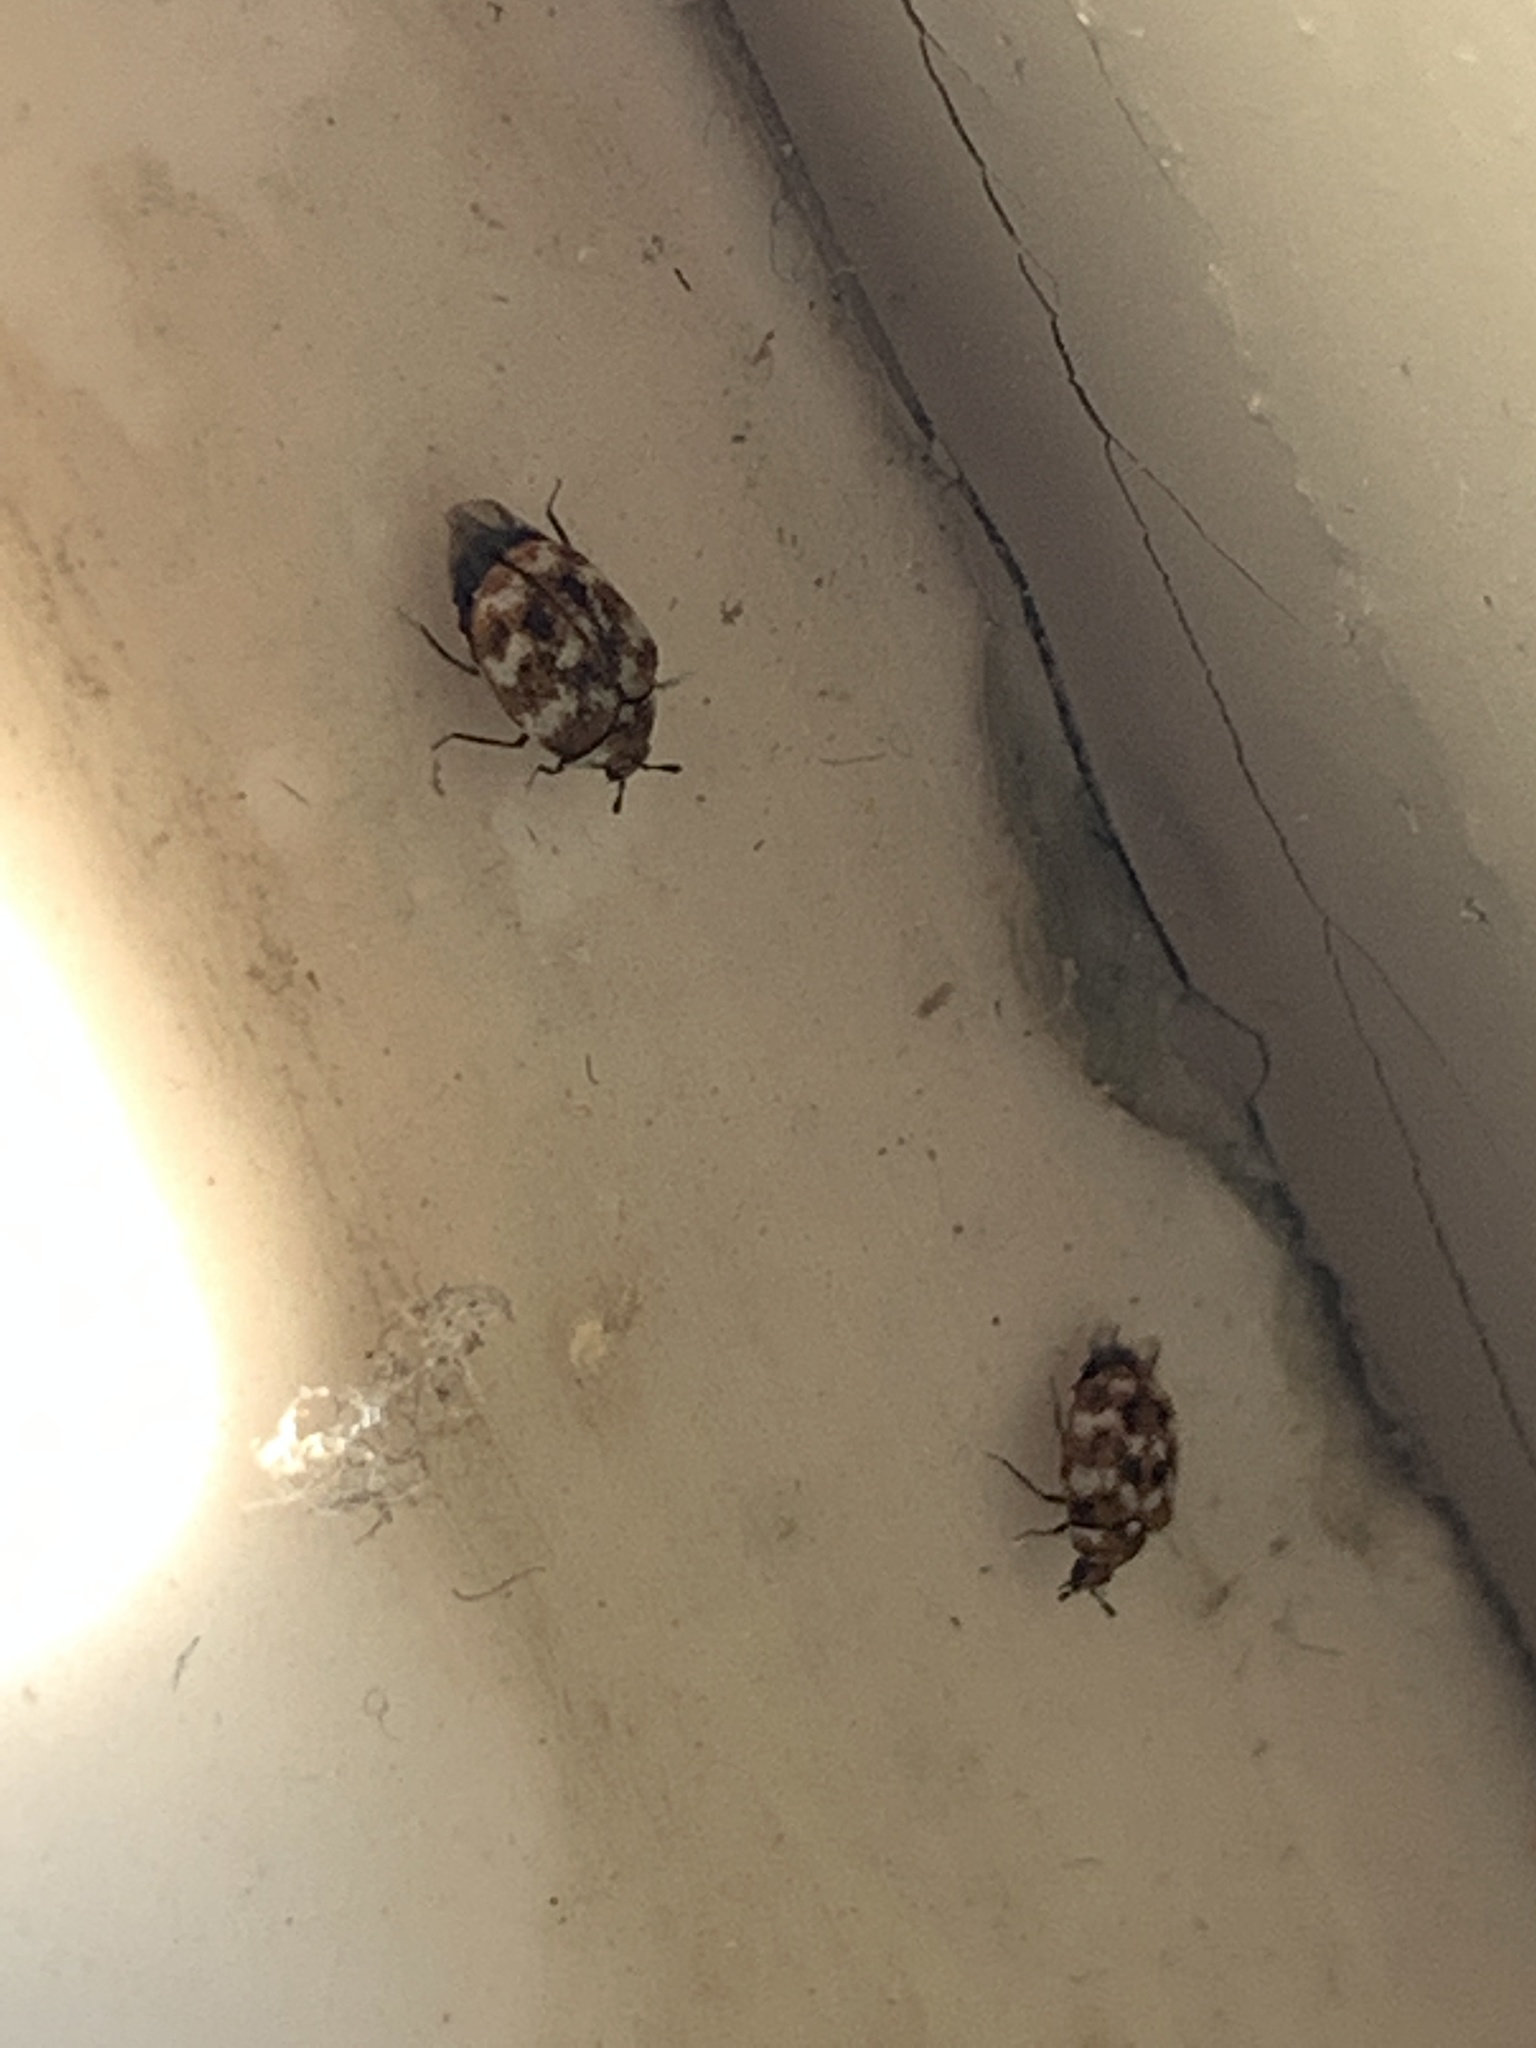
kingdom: Animalia
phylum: Arthropoda
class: Insecta
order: Coleoptera
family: Dermestidae
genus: Anthrenus
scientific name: Anthrenus verbasci
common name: Varied carpet beetle
